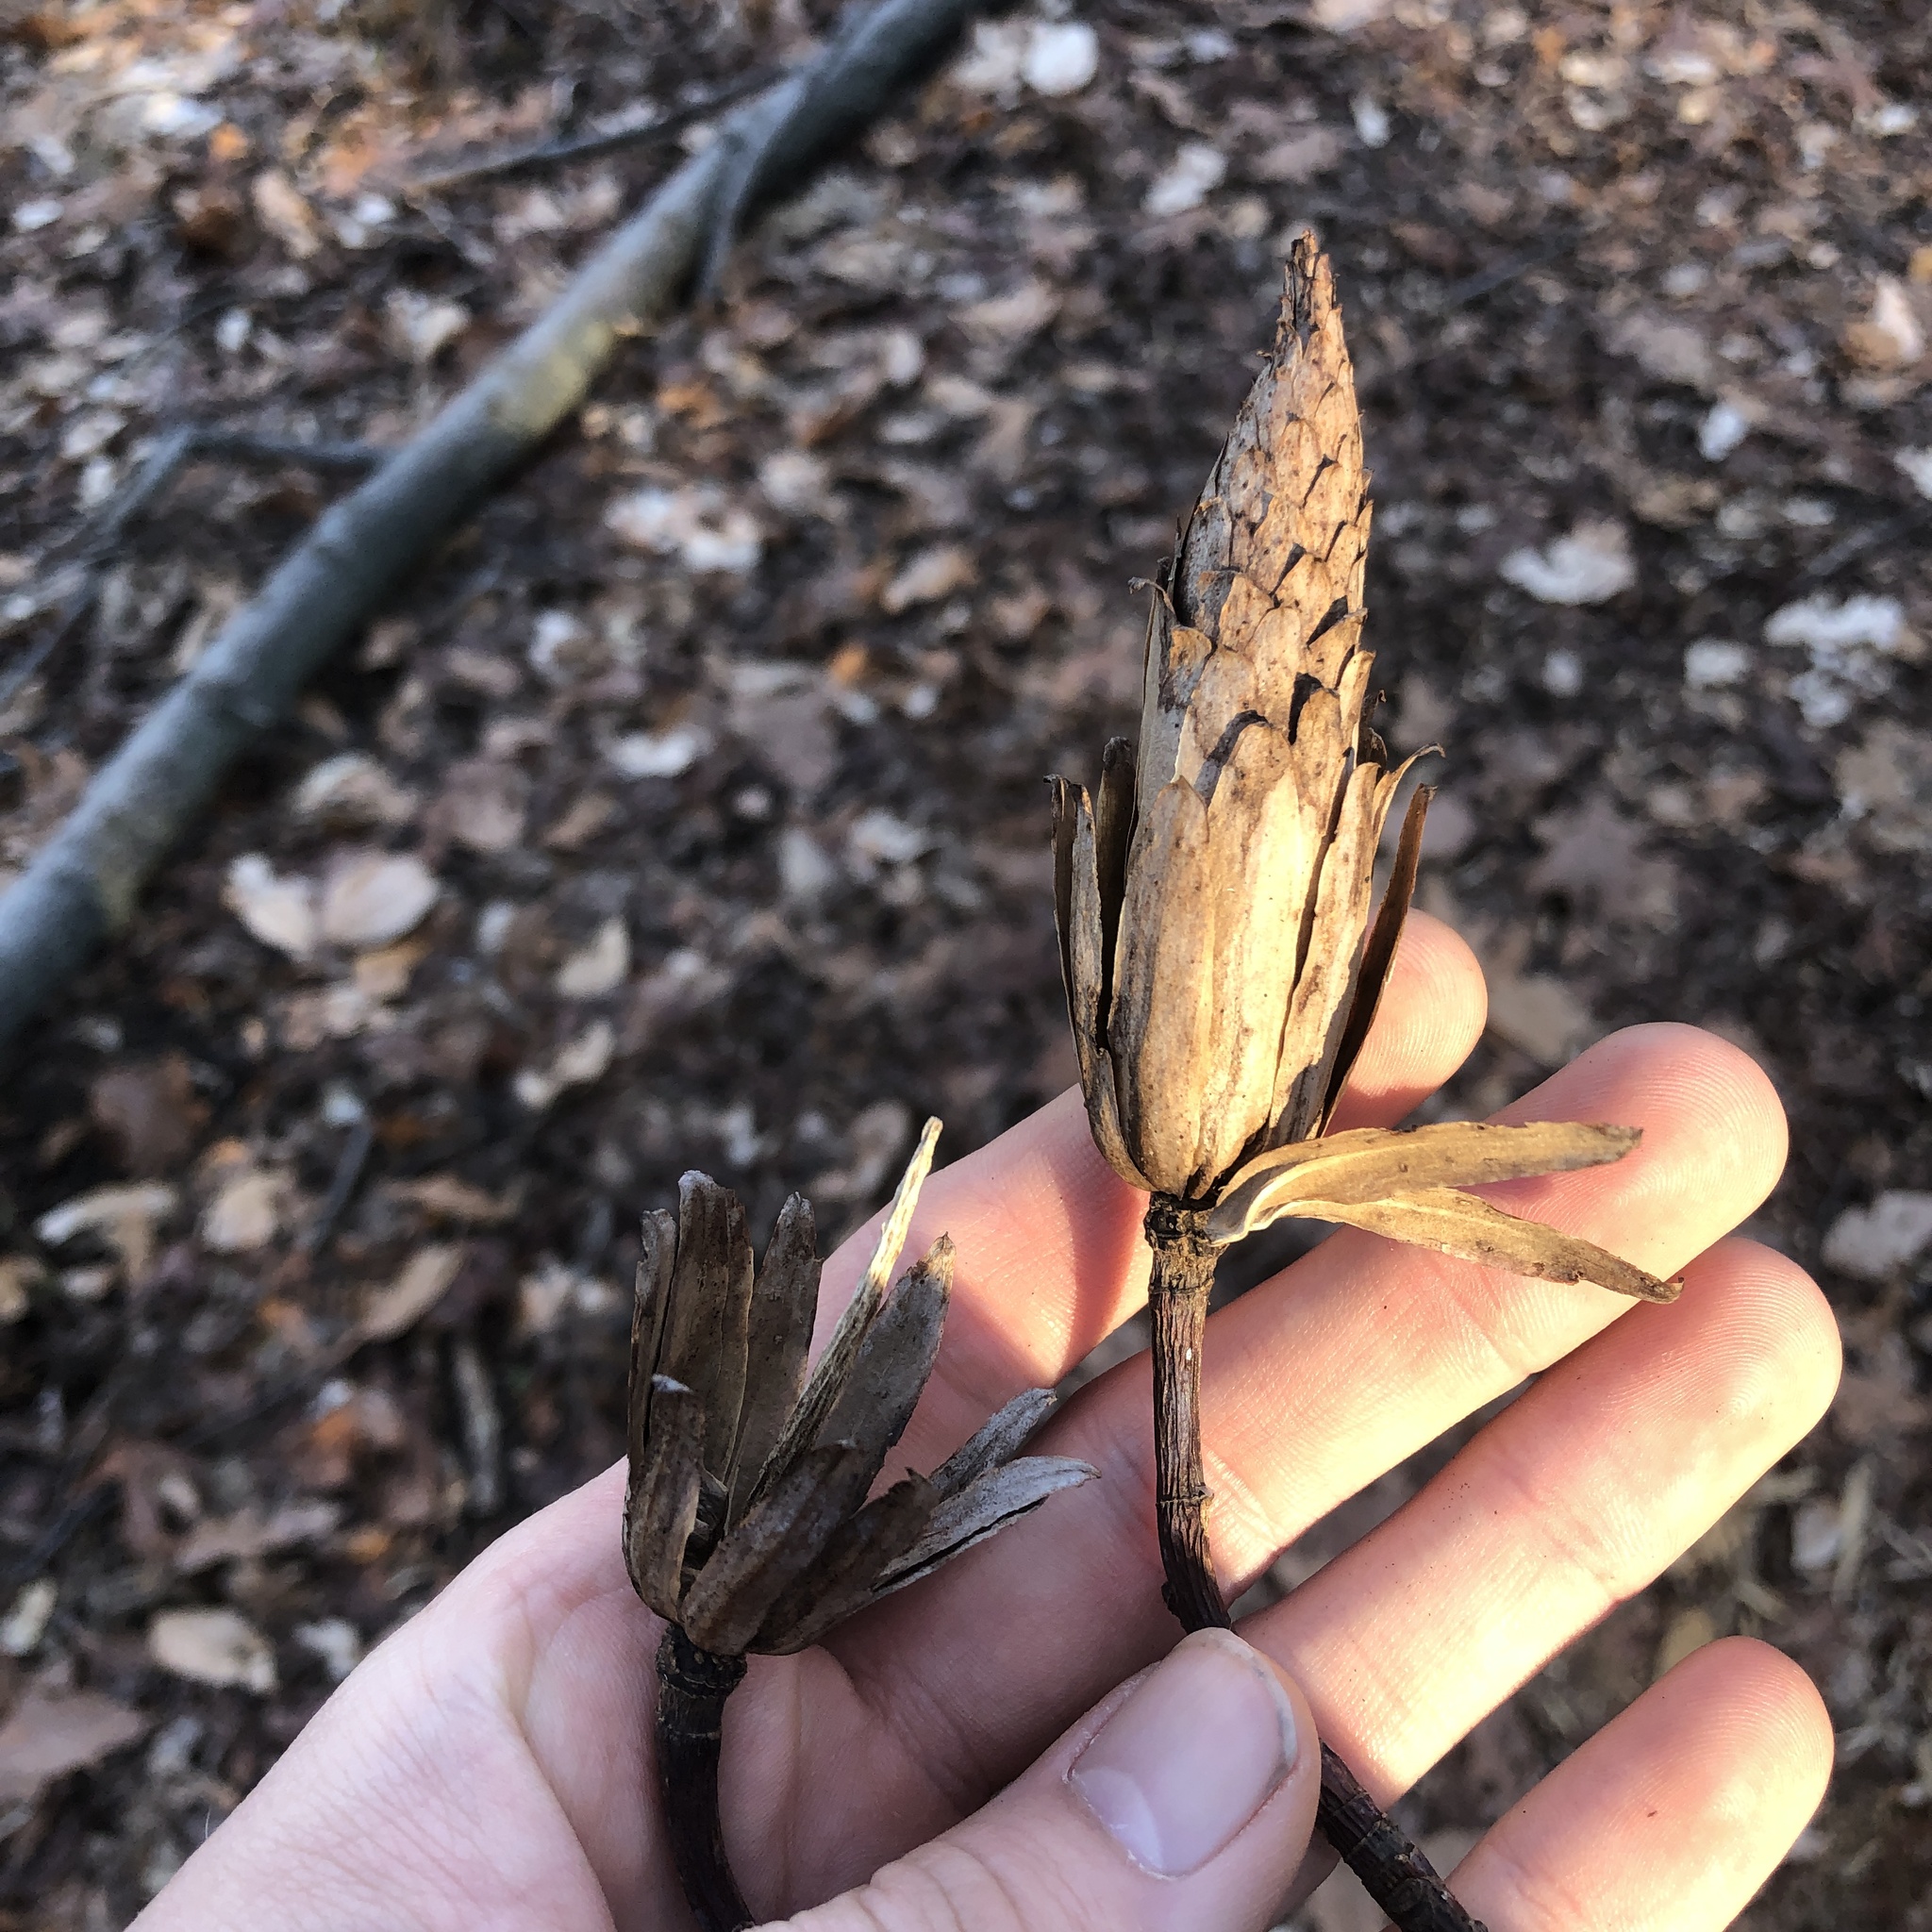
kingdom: Plantae
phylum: Tracheophyta
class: Magnoliopsida
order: Magnoliales
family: Magnoliaceae
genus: Liriodendron
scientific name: Liriodendron tulipifera
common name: Tulip tree
